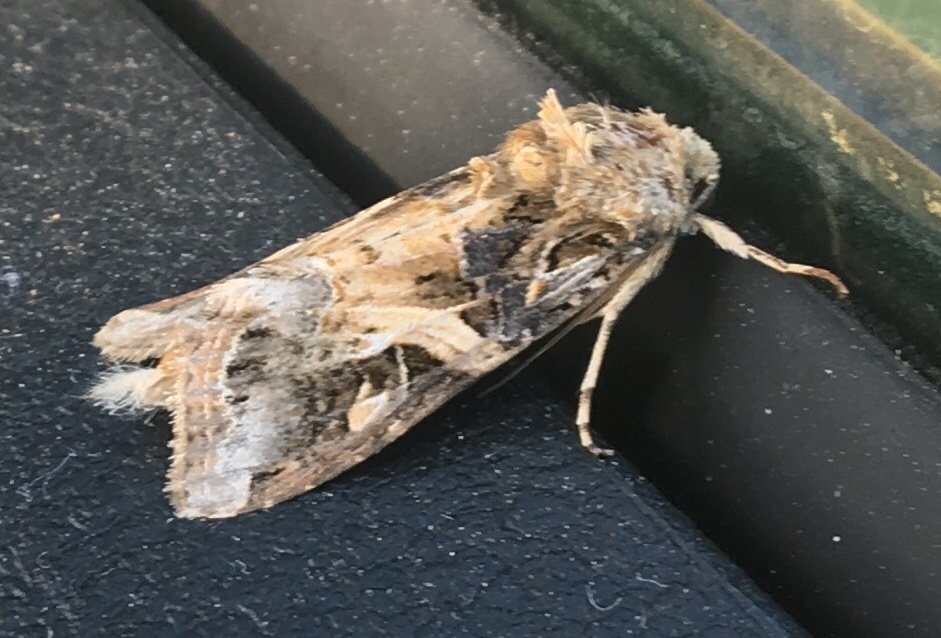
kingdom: Animalia
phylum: Arthropoda
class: Insecta
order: Lepidoptera
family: Noctuidae
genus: Spodoptera
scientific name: Spodoptera ornithogalli
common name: Yellow-striped armyworm
